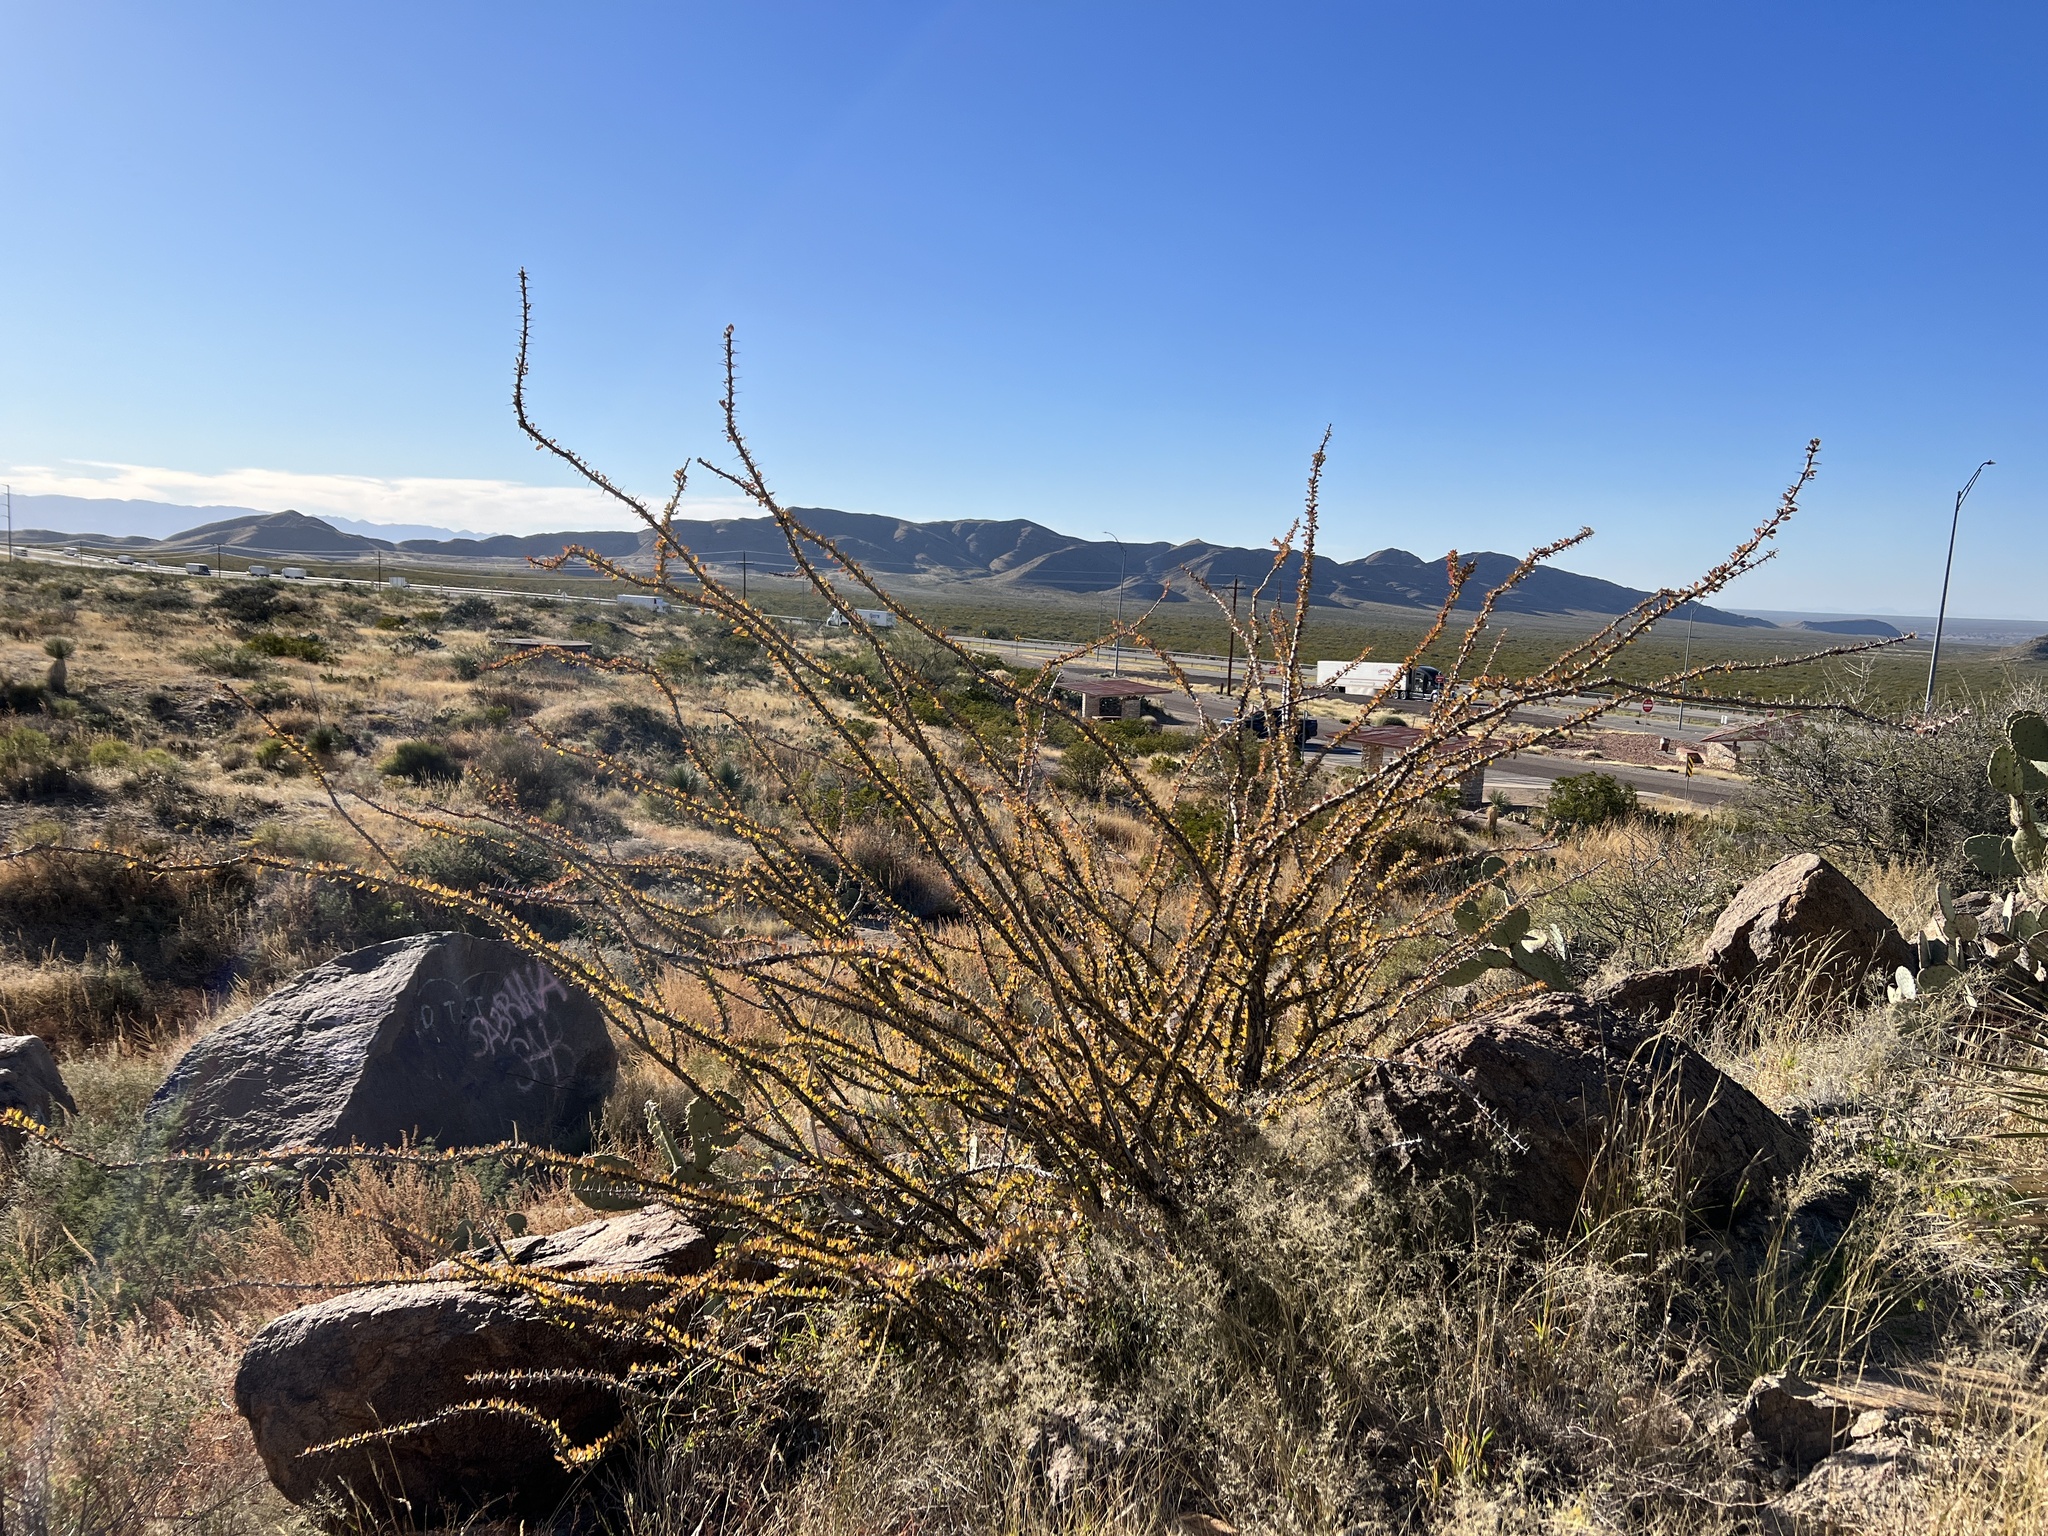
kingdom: Plantae
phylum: Tracheophyta
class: Magnoliopsida
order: Ericales
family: Fouquieriaceae
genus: Fouquieria
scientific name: Fouquieria splendens
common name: Vine-cactus
